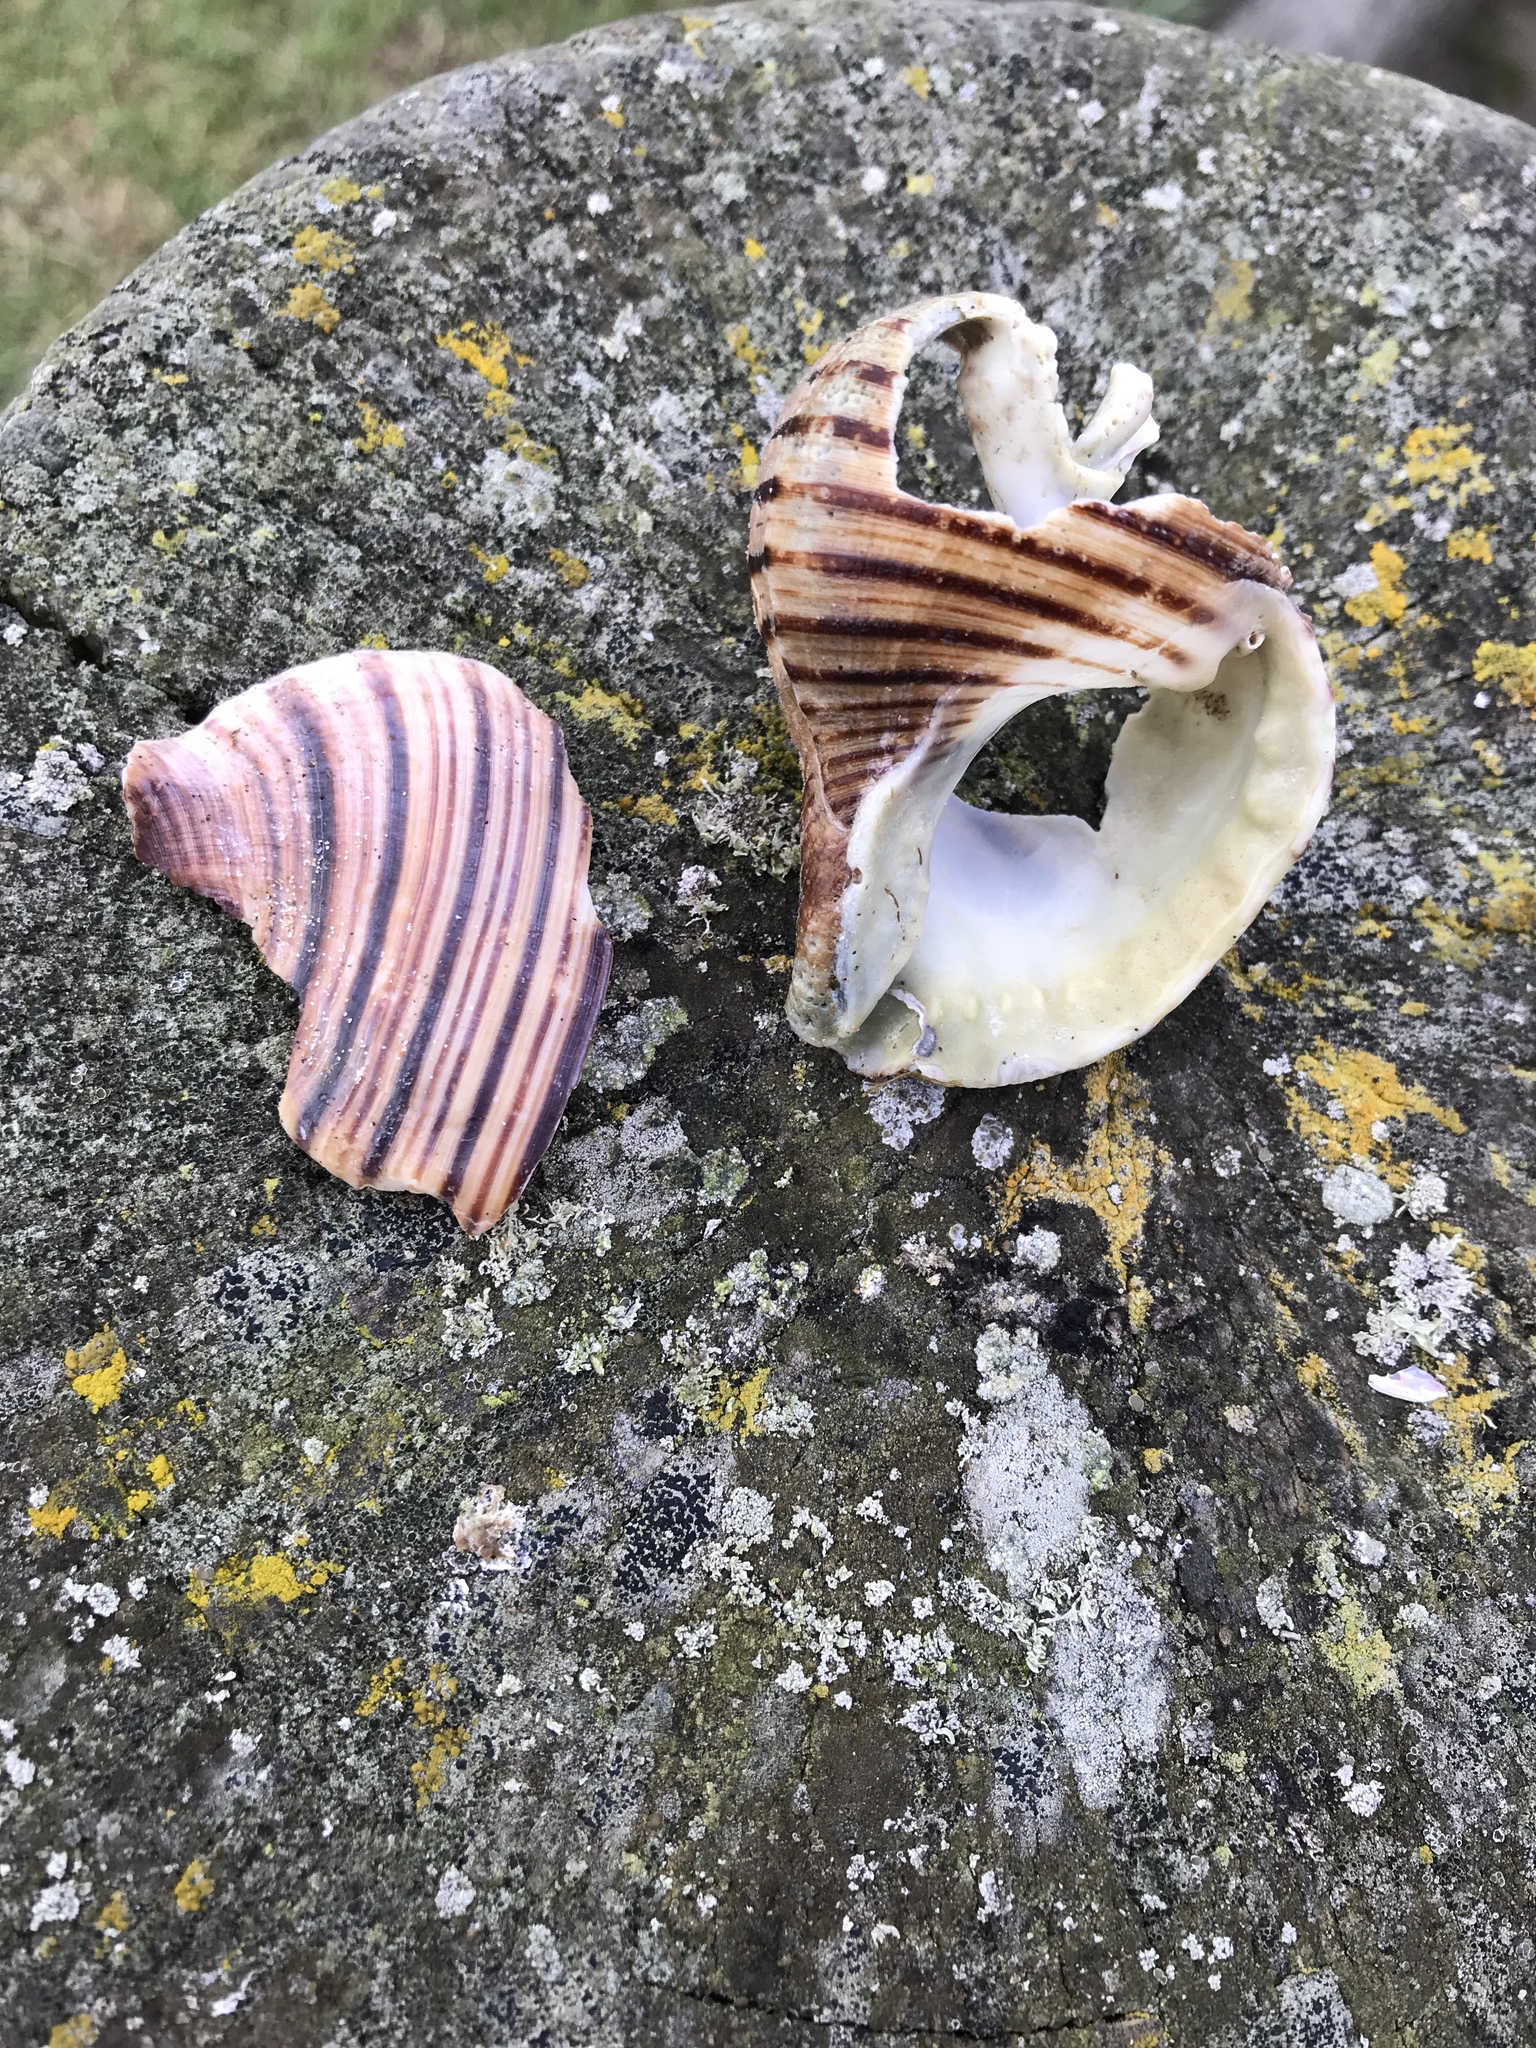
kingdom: Animalia
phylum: Mollusca
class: Gastropoda
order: Littorinimorpha
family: Cymatiidae
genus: Argobuccinum
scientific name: Argobuccinum pustulosum
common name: Pustular triton
